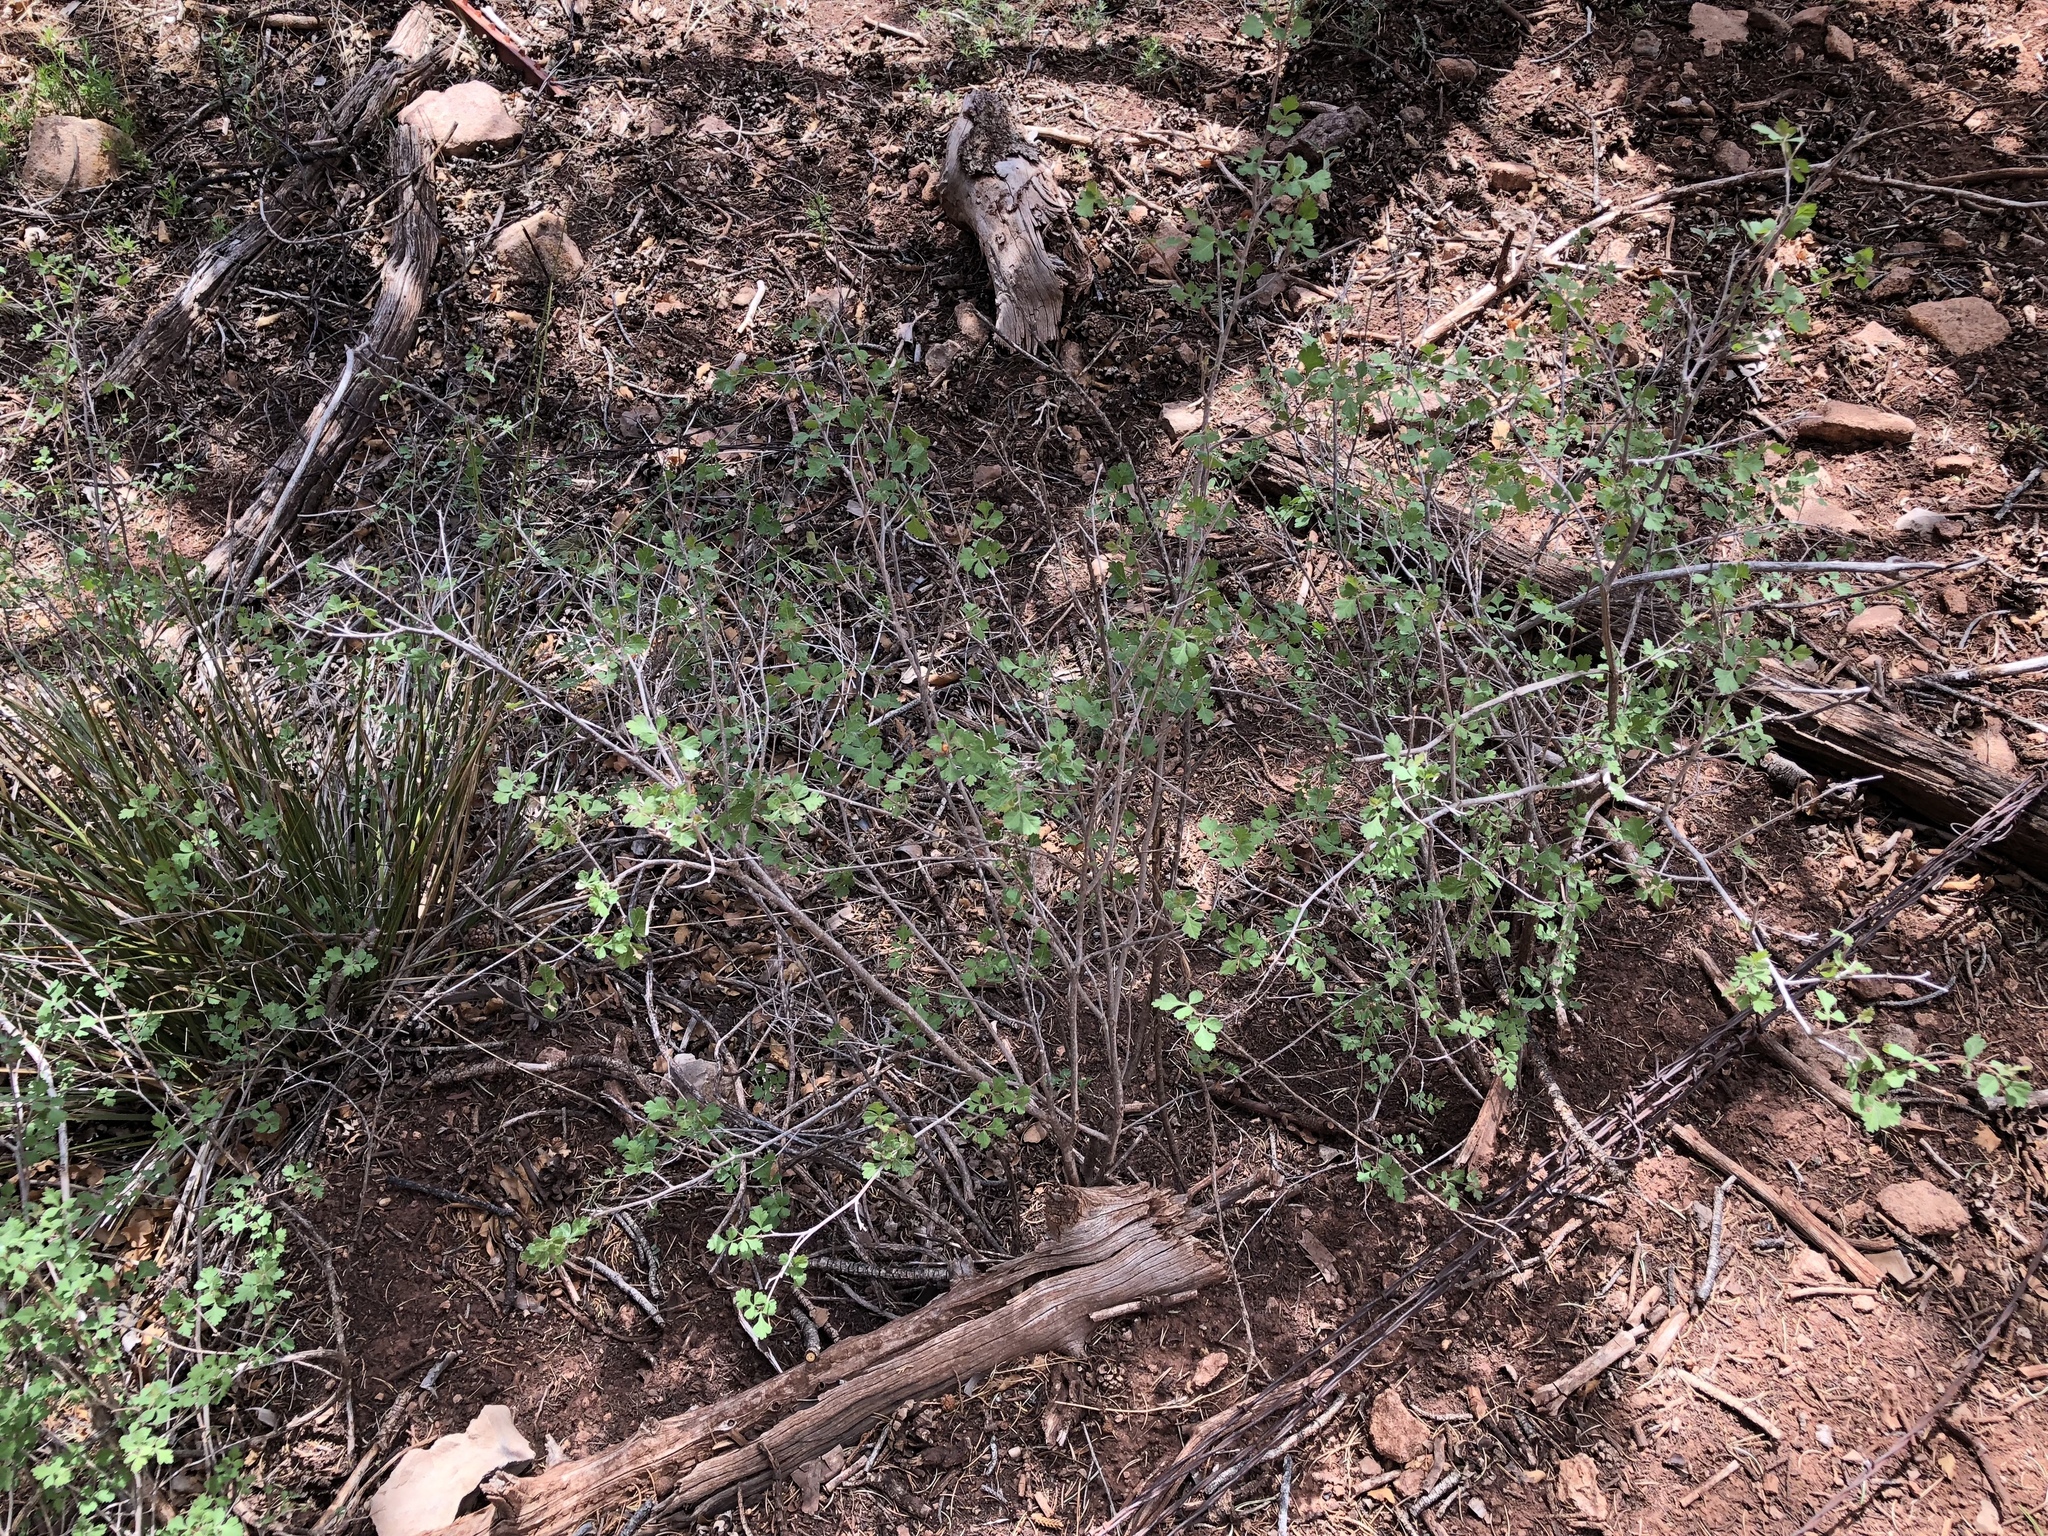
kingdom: Plantae
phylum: Tracheophyta
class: Magnoliopsida
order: Sapindales
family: Anacardiaceae
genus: Rhus
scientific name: Rhus aromatica
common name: Aromatic sumac
